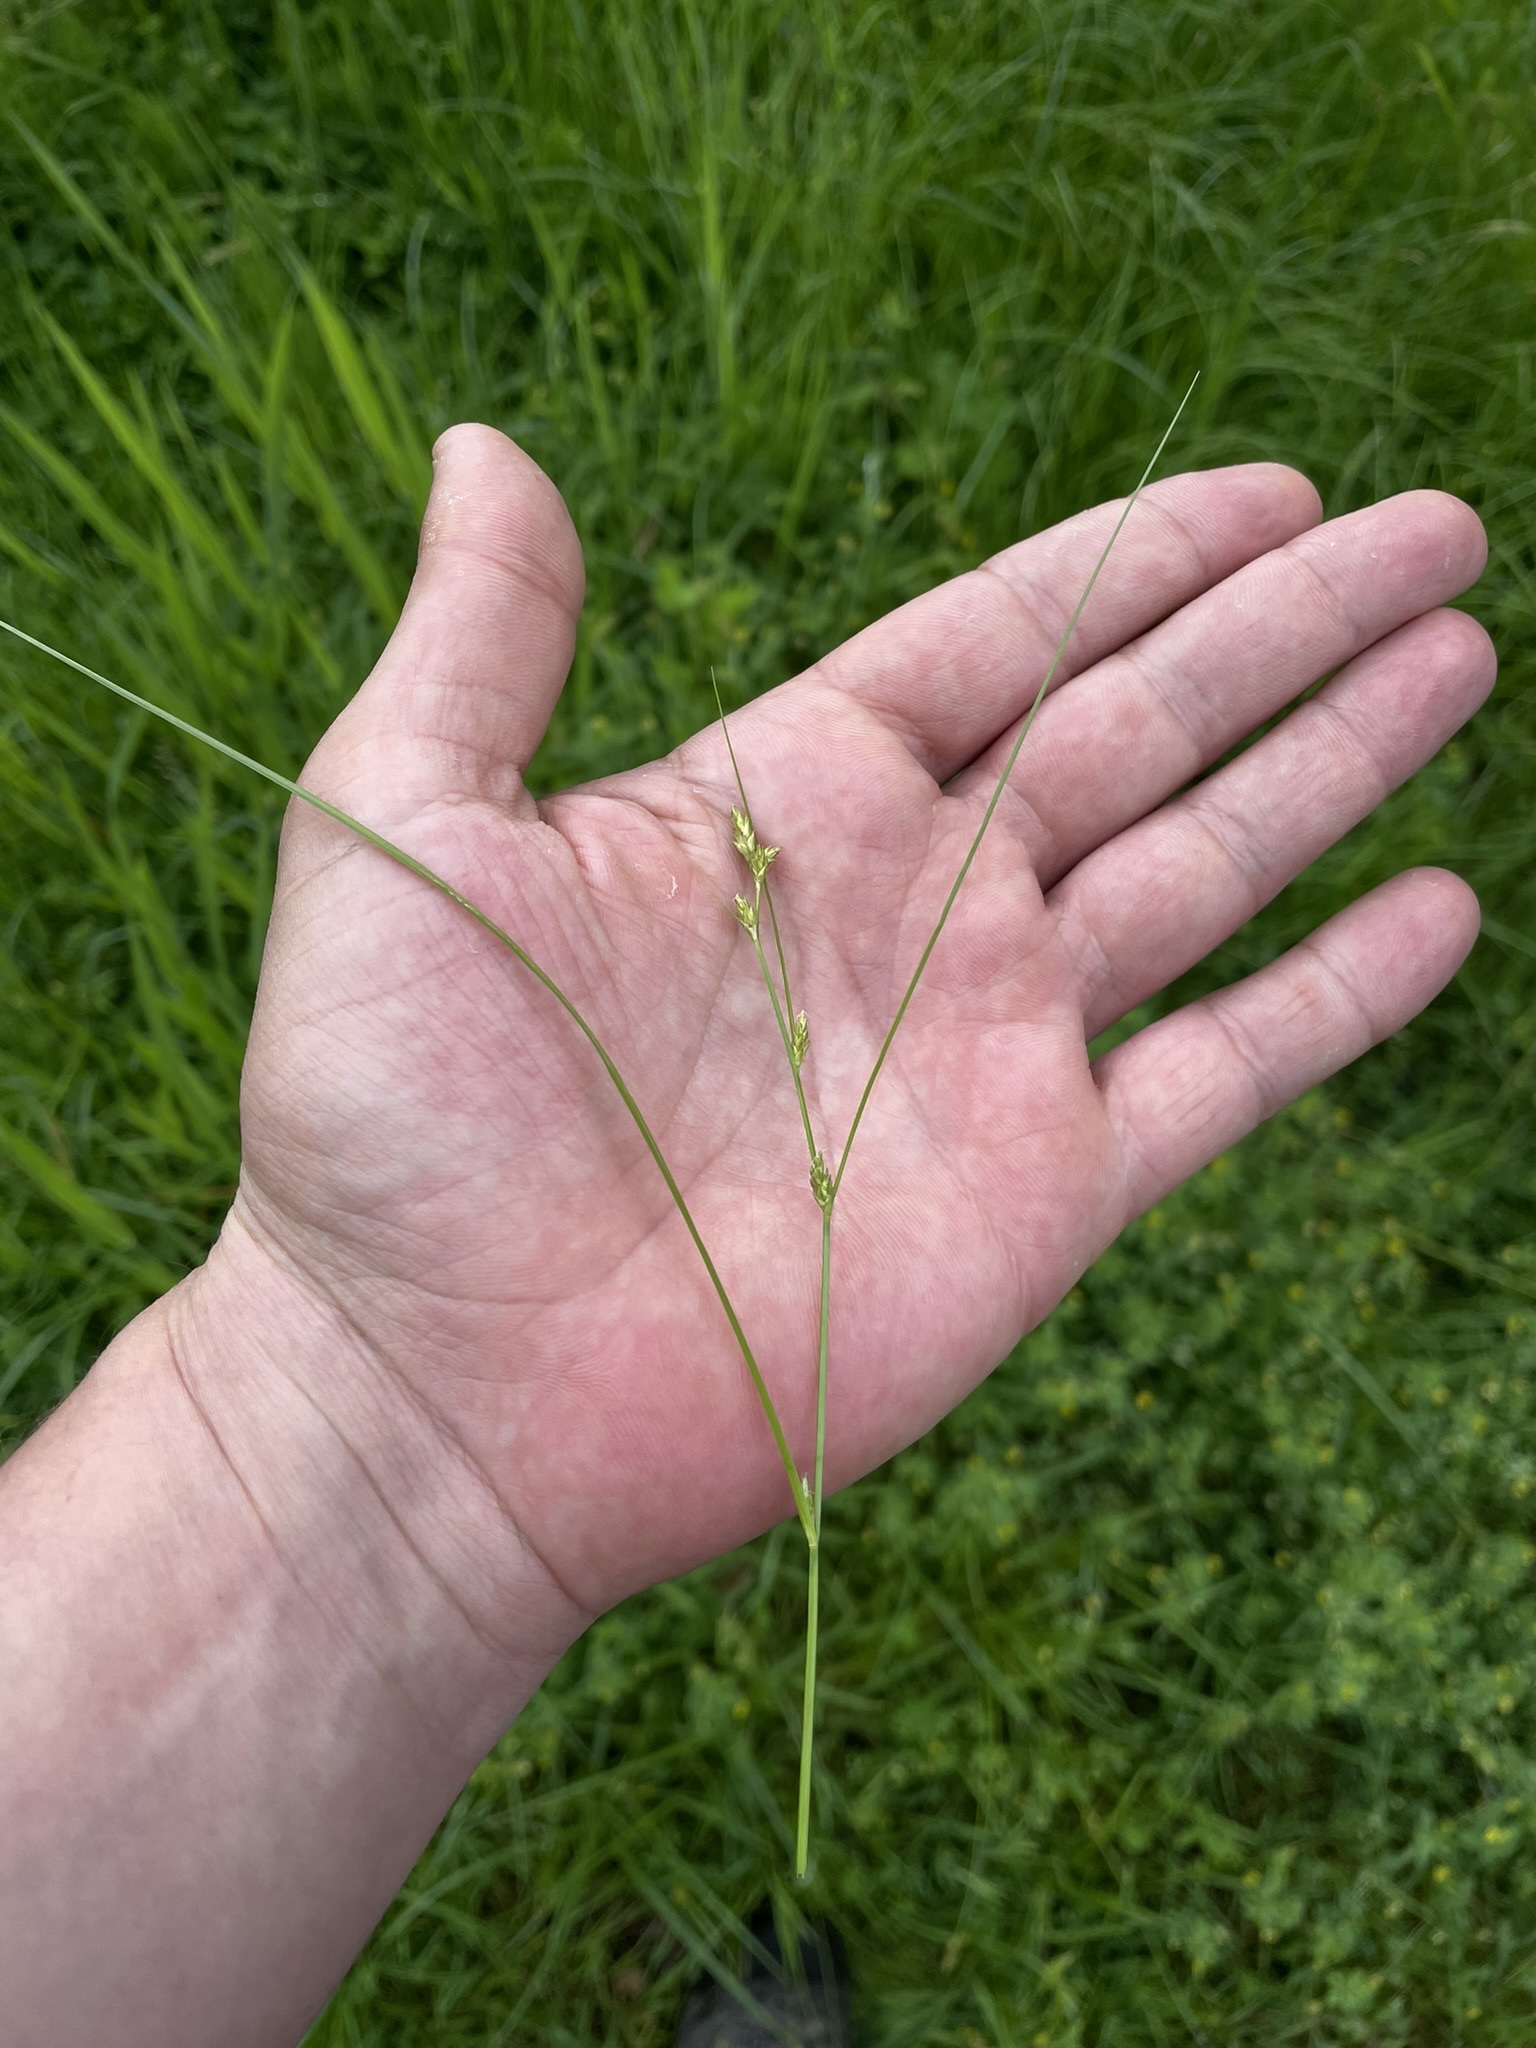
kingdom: Plantae
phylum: Tracheophyta
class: Liliopsida
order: Poales
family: Cyperaceae
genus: Carex
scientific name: Carex remota
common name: Remote sedge
